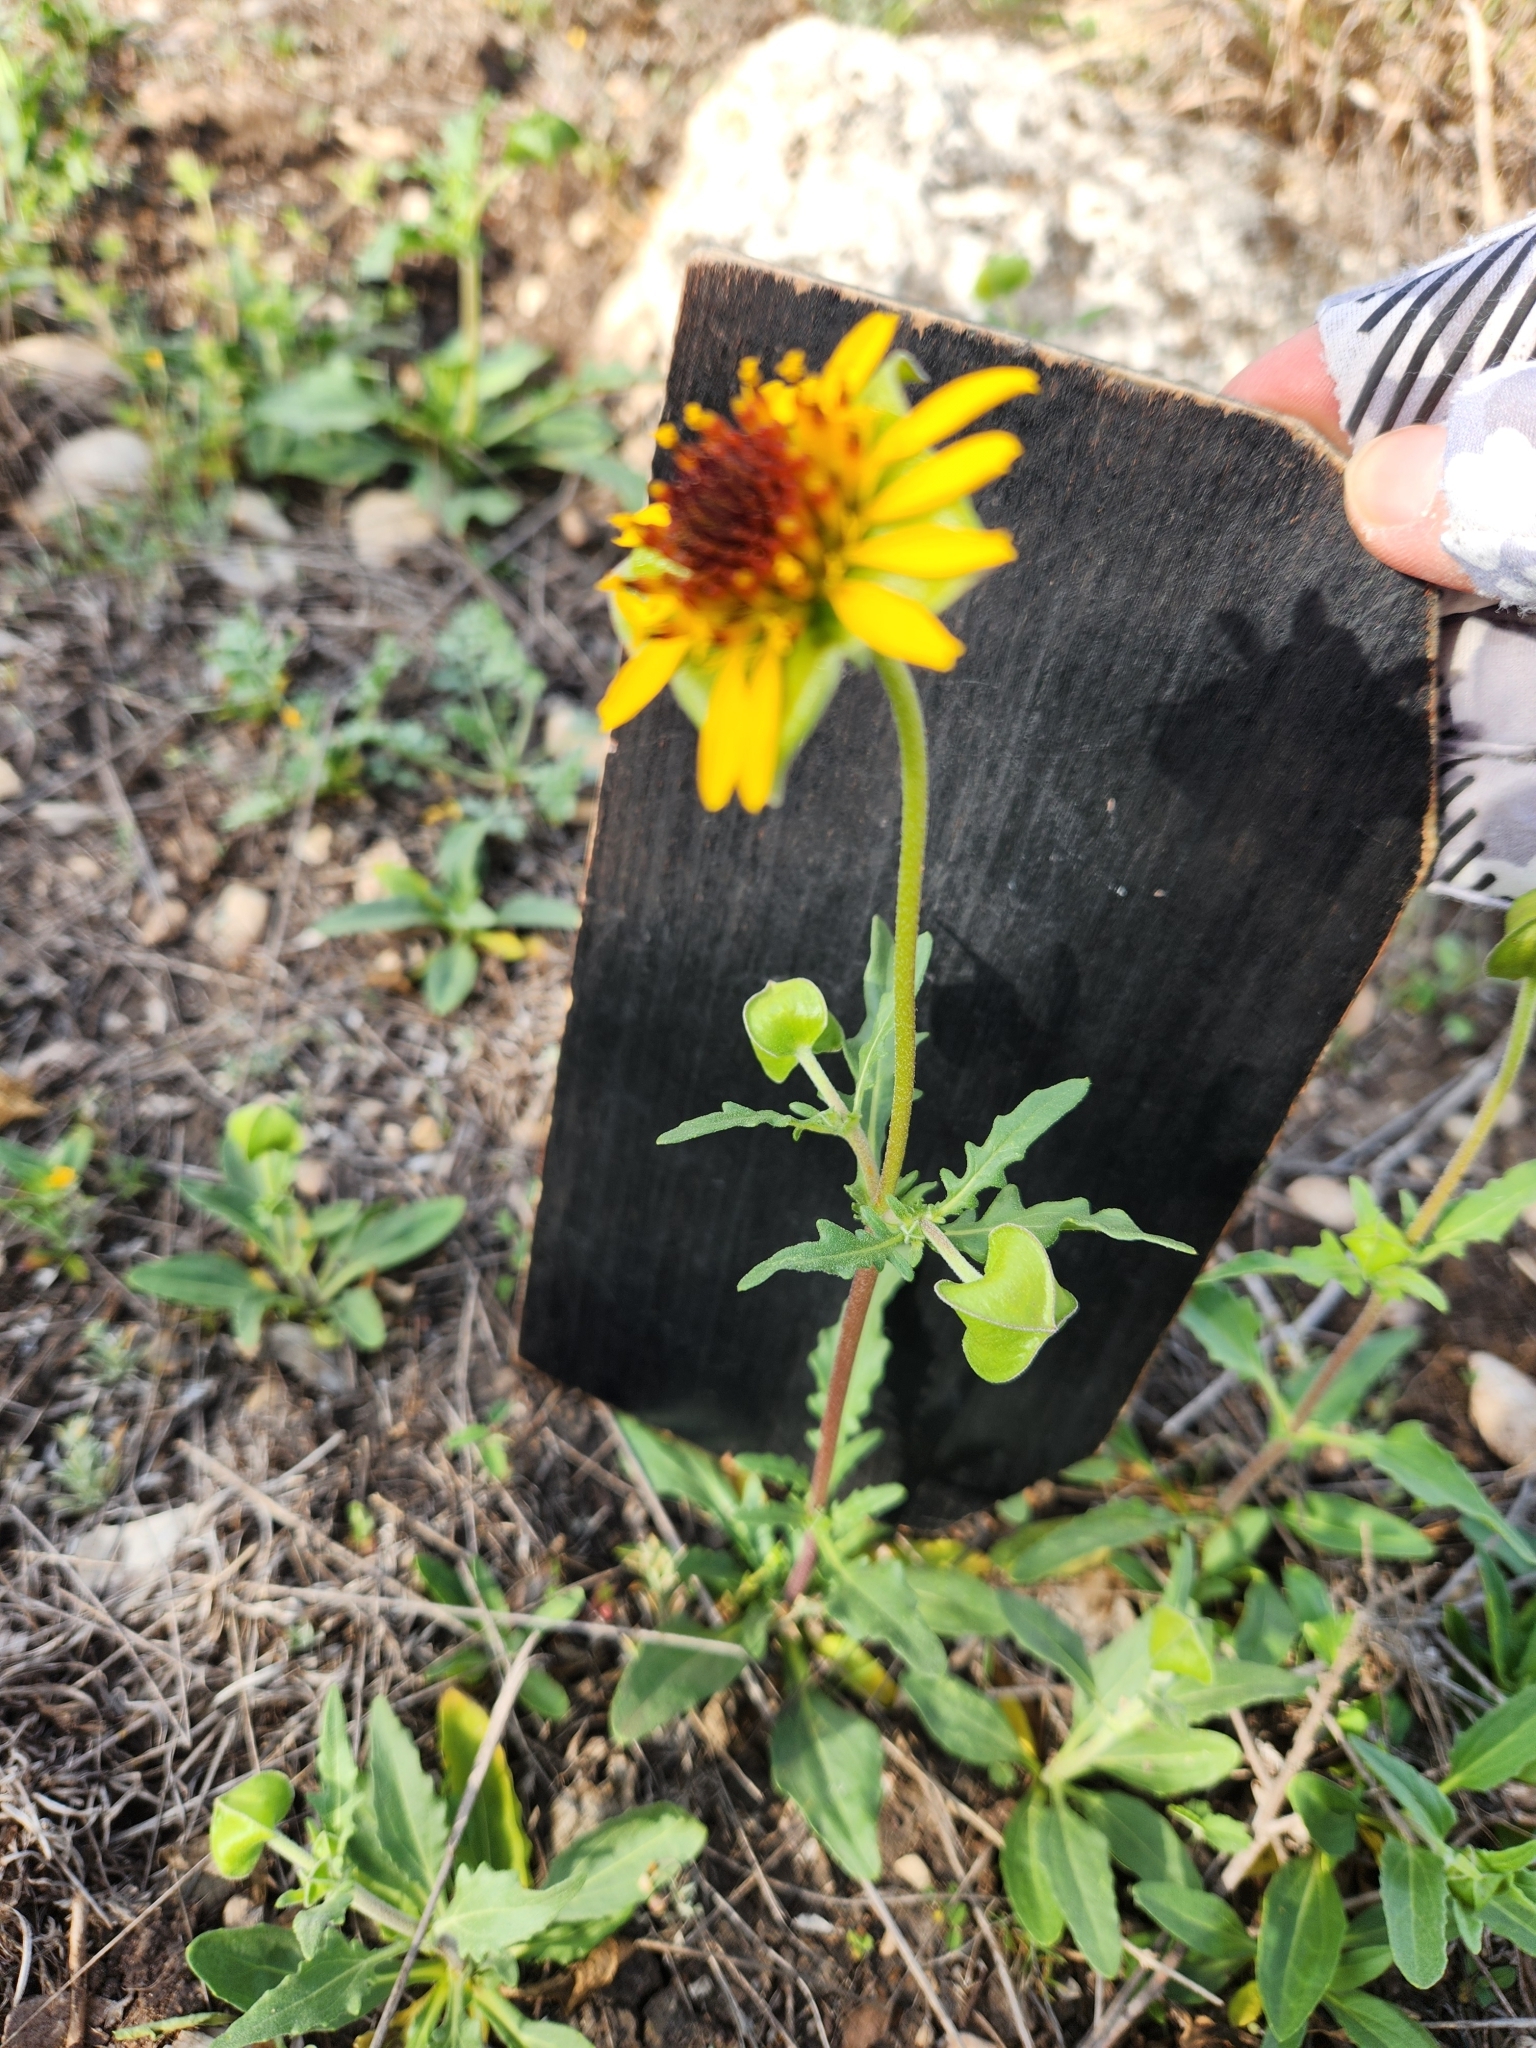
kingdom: Plantae
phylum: Tracheophyta
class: Magnoliopsida
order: Asterales
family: Asteraceae
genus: Tetragonotheca
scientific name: Tetragonotheca texana
